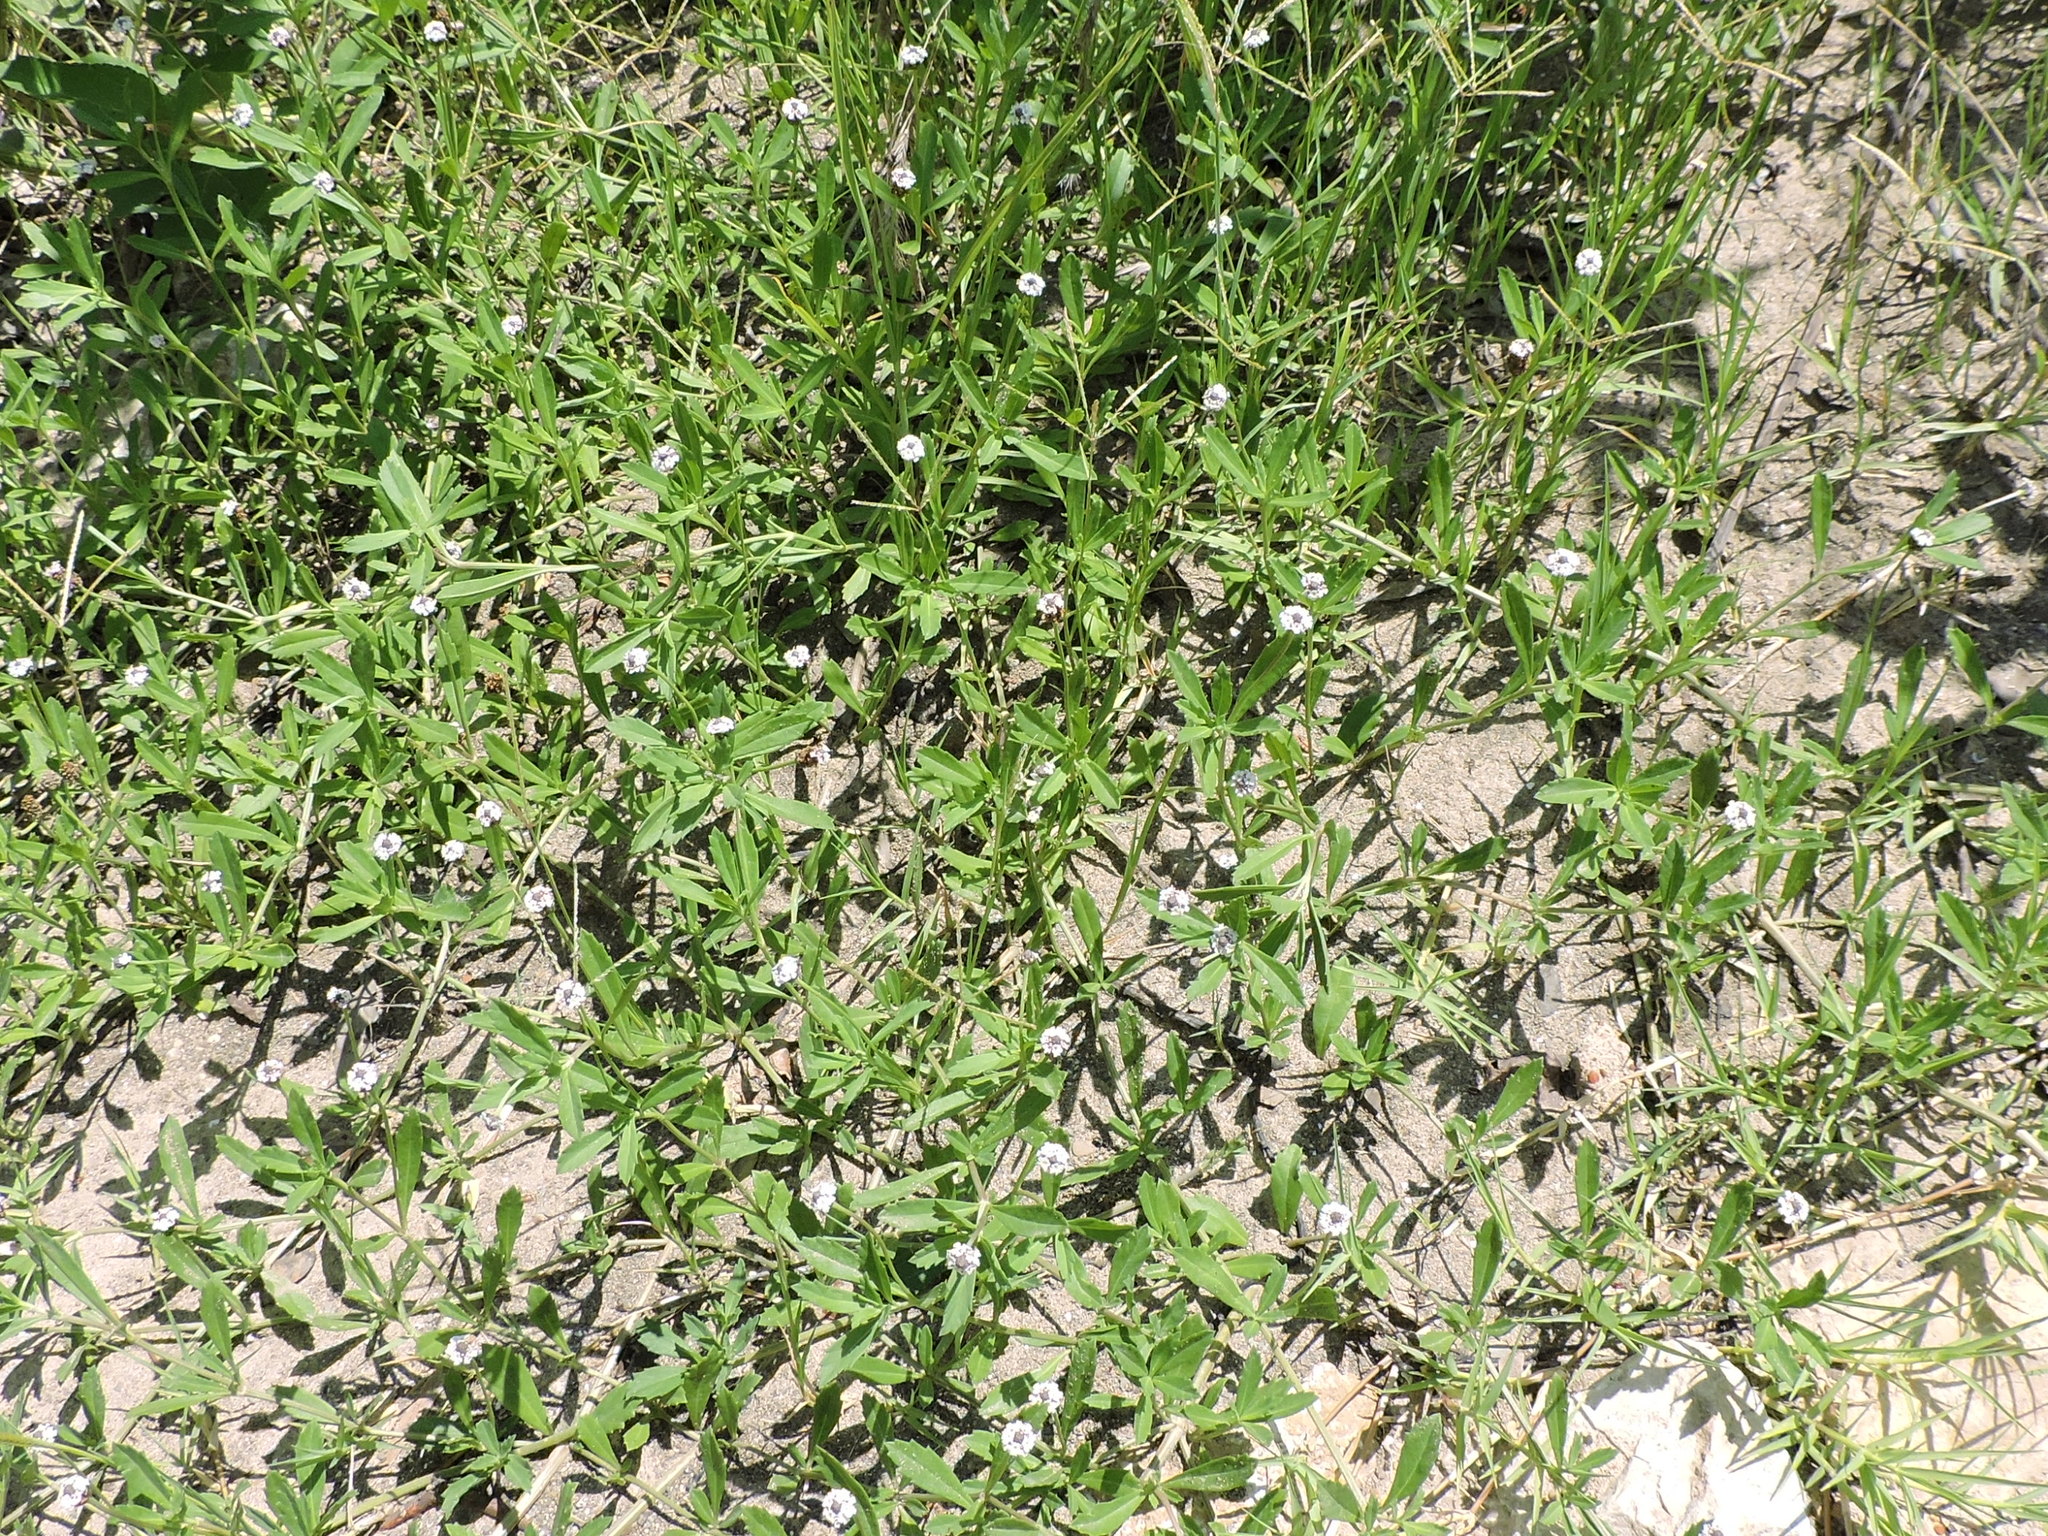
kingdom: Plantae
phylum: Tracheophyta
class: Magnoliopsida
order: Lamiales
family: Verbenaceae
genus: Phyla
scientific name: Phyla nodiflora
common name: Frogfruit
